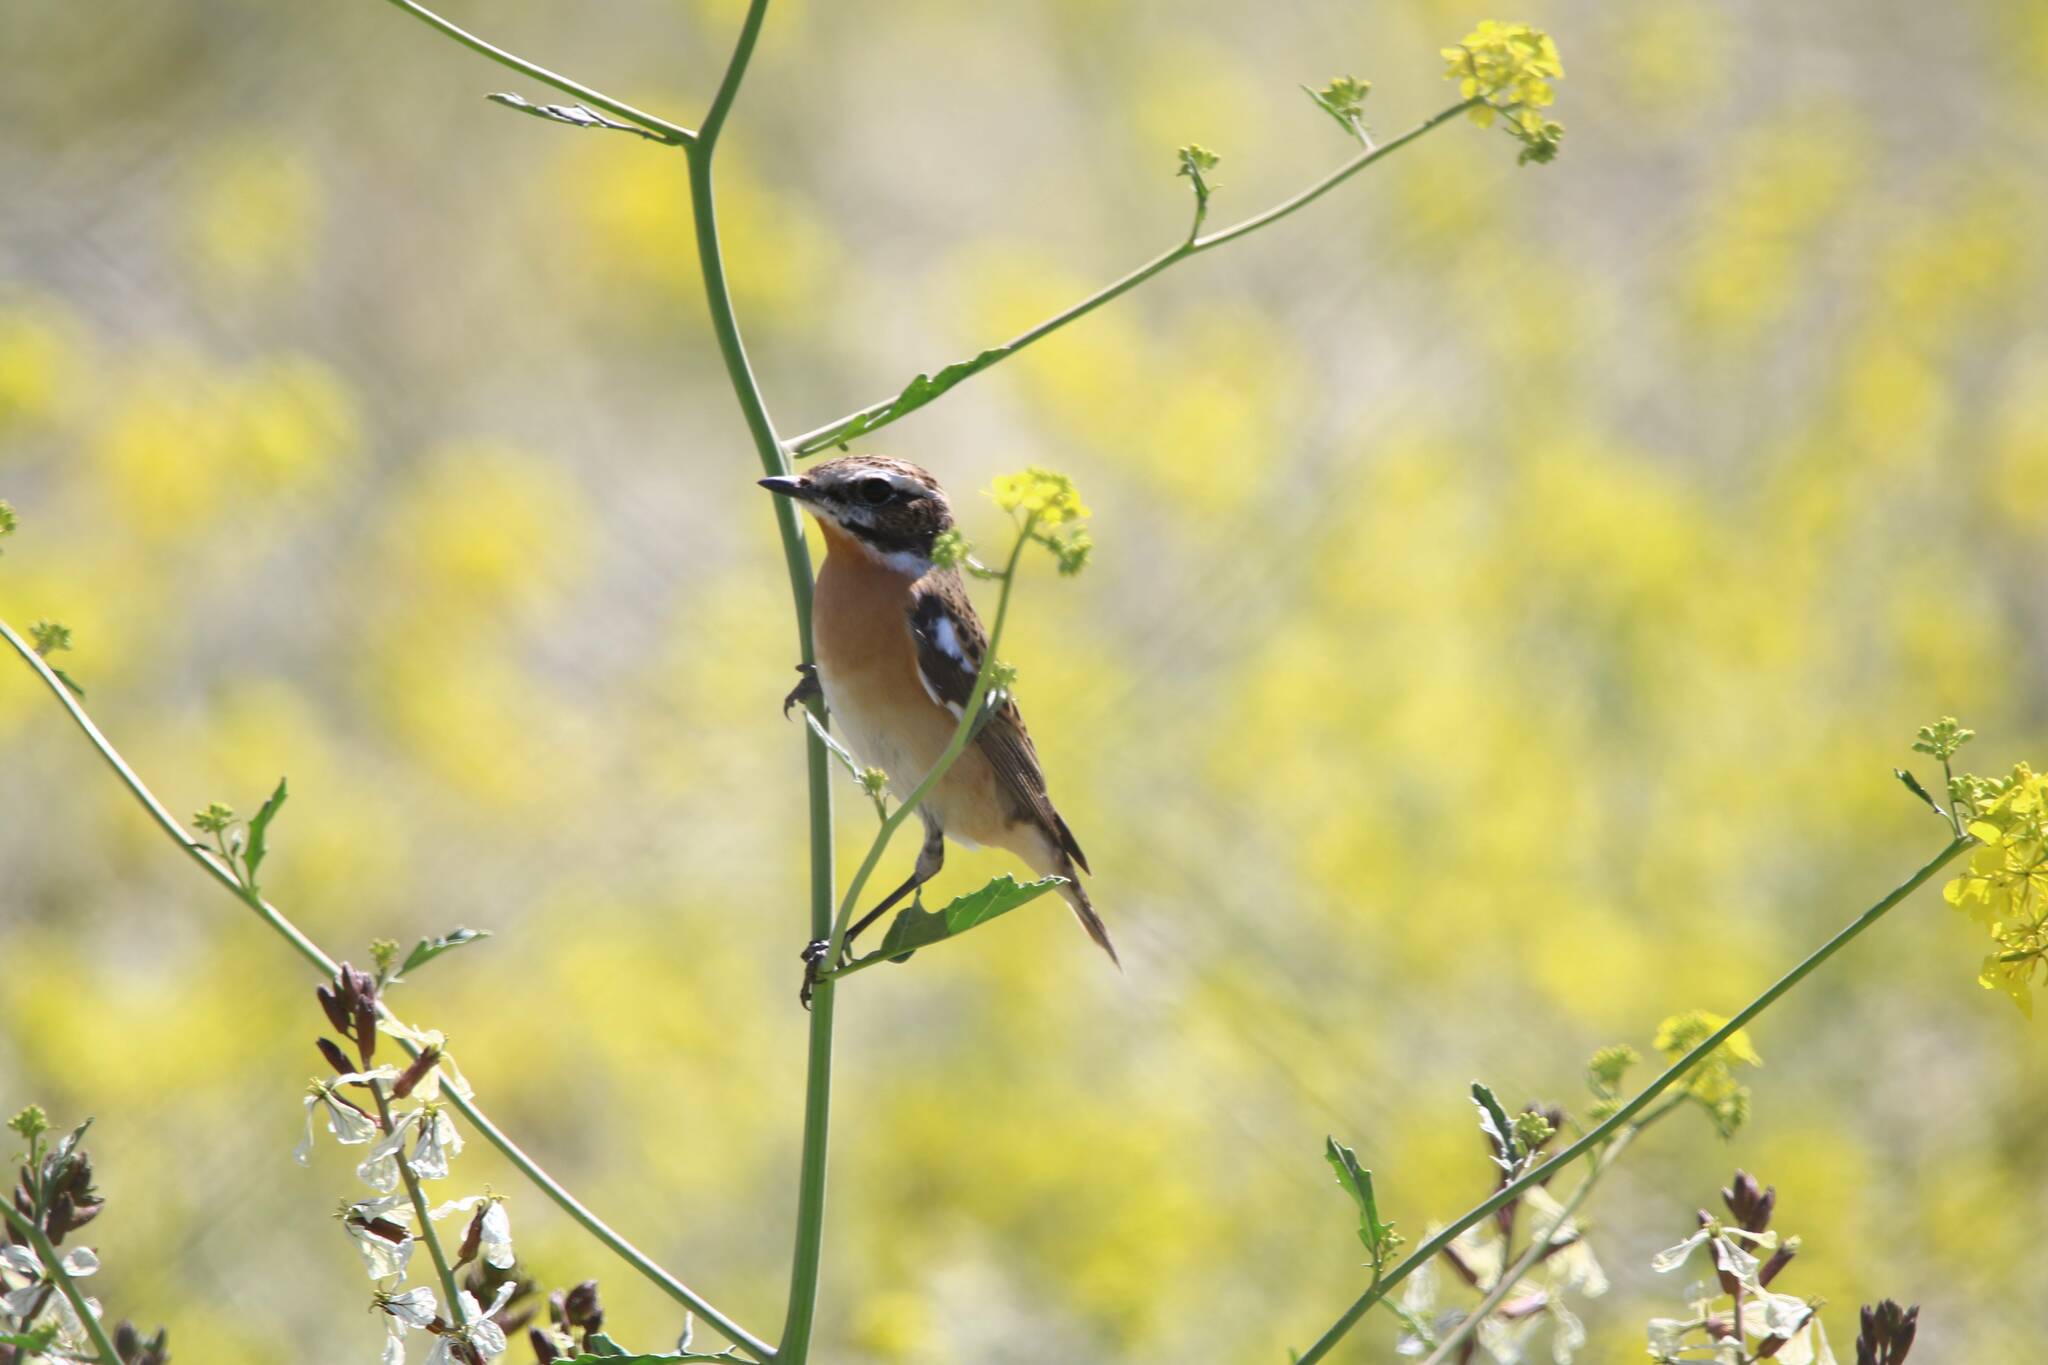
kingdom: Animalia
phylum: Chordata
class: Aves
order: Passeriformes
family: Muscicapidae
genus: Saxicola
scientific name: Saxicola rubetra
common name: Whinchat
